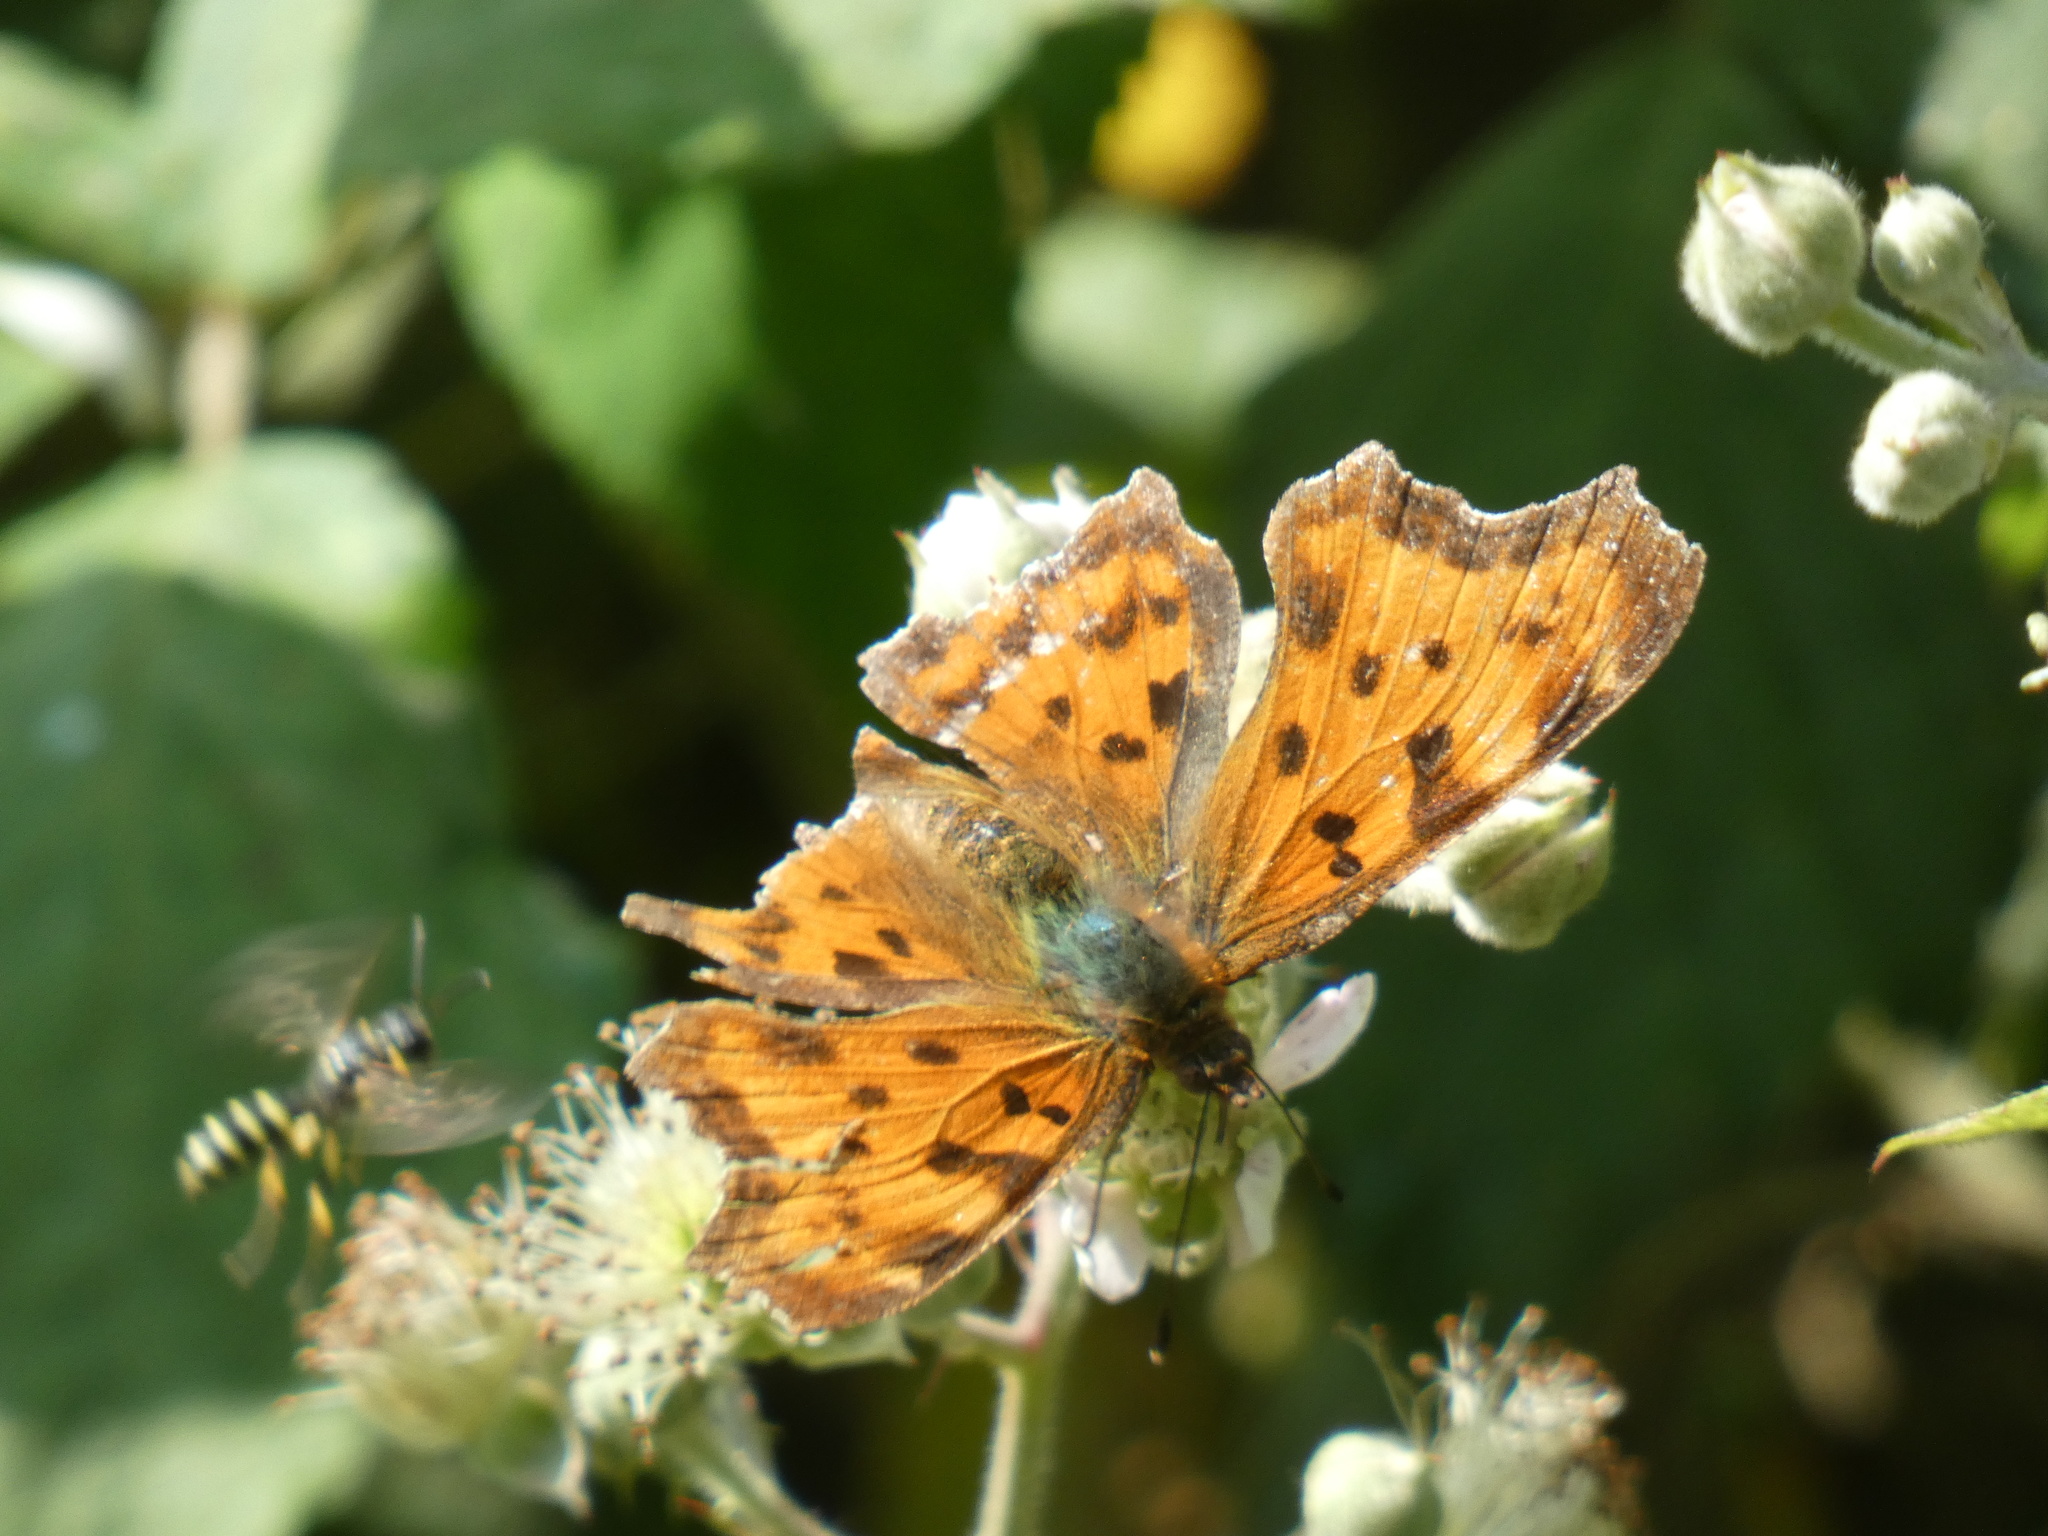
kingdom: Animalia
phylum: Arthropoda
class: Insecta
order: Lepidoptera
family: Nymphalidae
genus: Polygonia
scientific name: Polygonia c-album
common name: Comma
